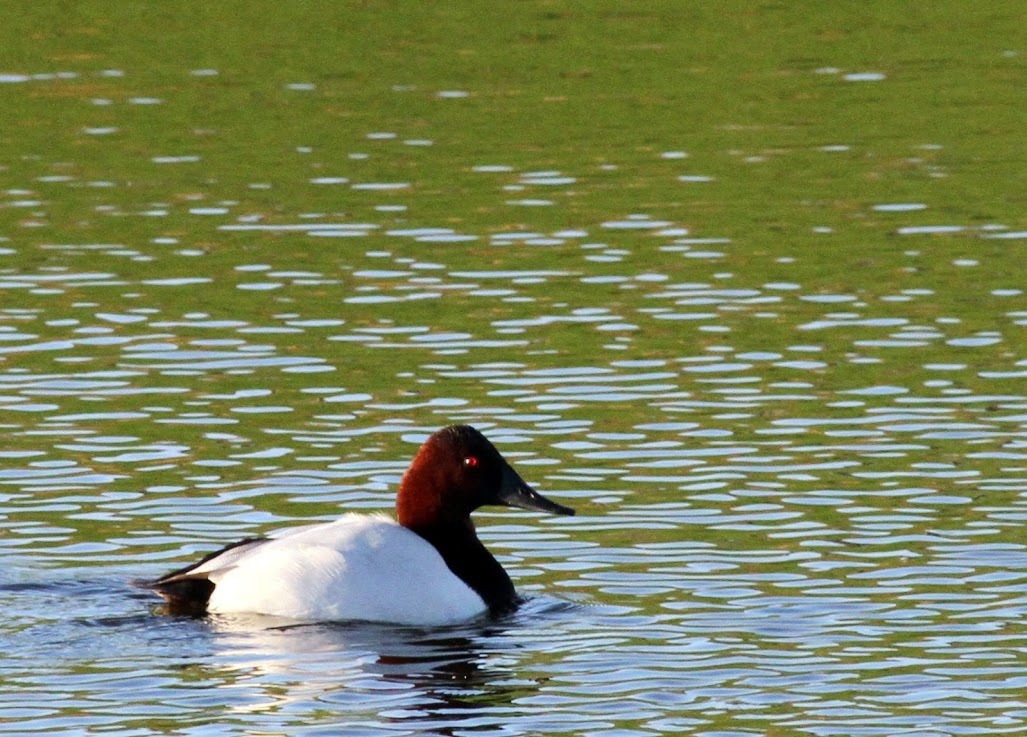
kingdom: Animalia
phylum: Chordata
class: Aves
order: Anseriformes
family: Anatidae
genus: Aythya
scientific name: Aythya valisineria
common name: Canvasback
